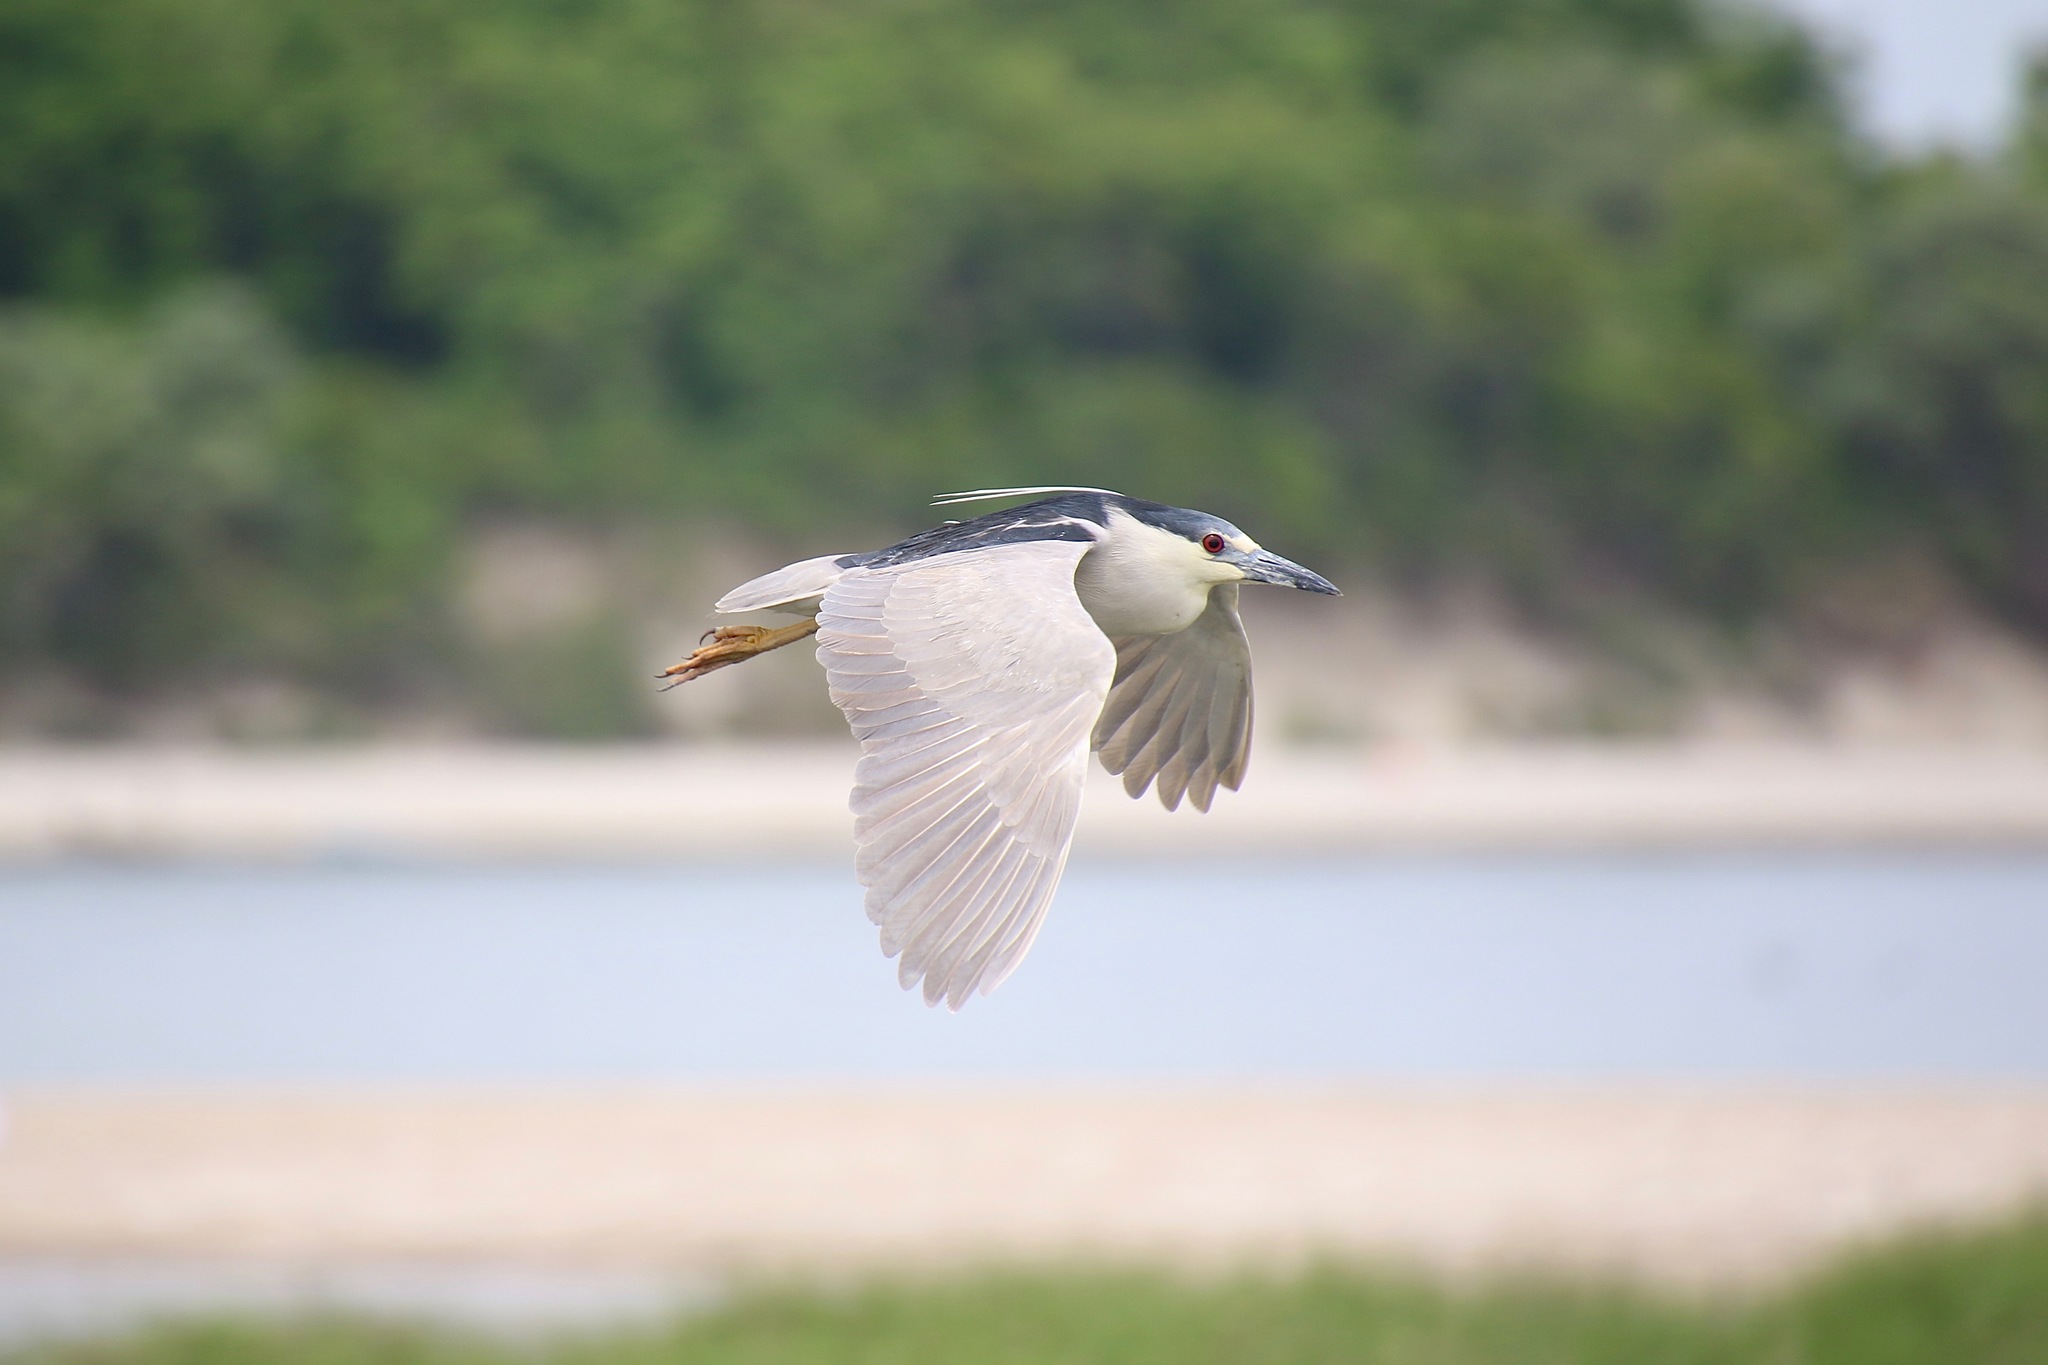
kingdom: Animalia
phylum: Chordata
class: Aves
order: Pelecaniformes
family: Ardeidae
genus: Nycticorax
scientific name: Nycticorax nycticorax
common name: Black-crowned night heron
